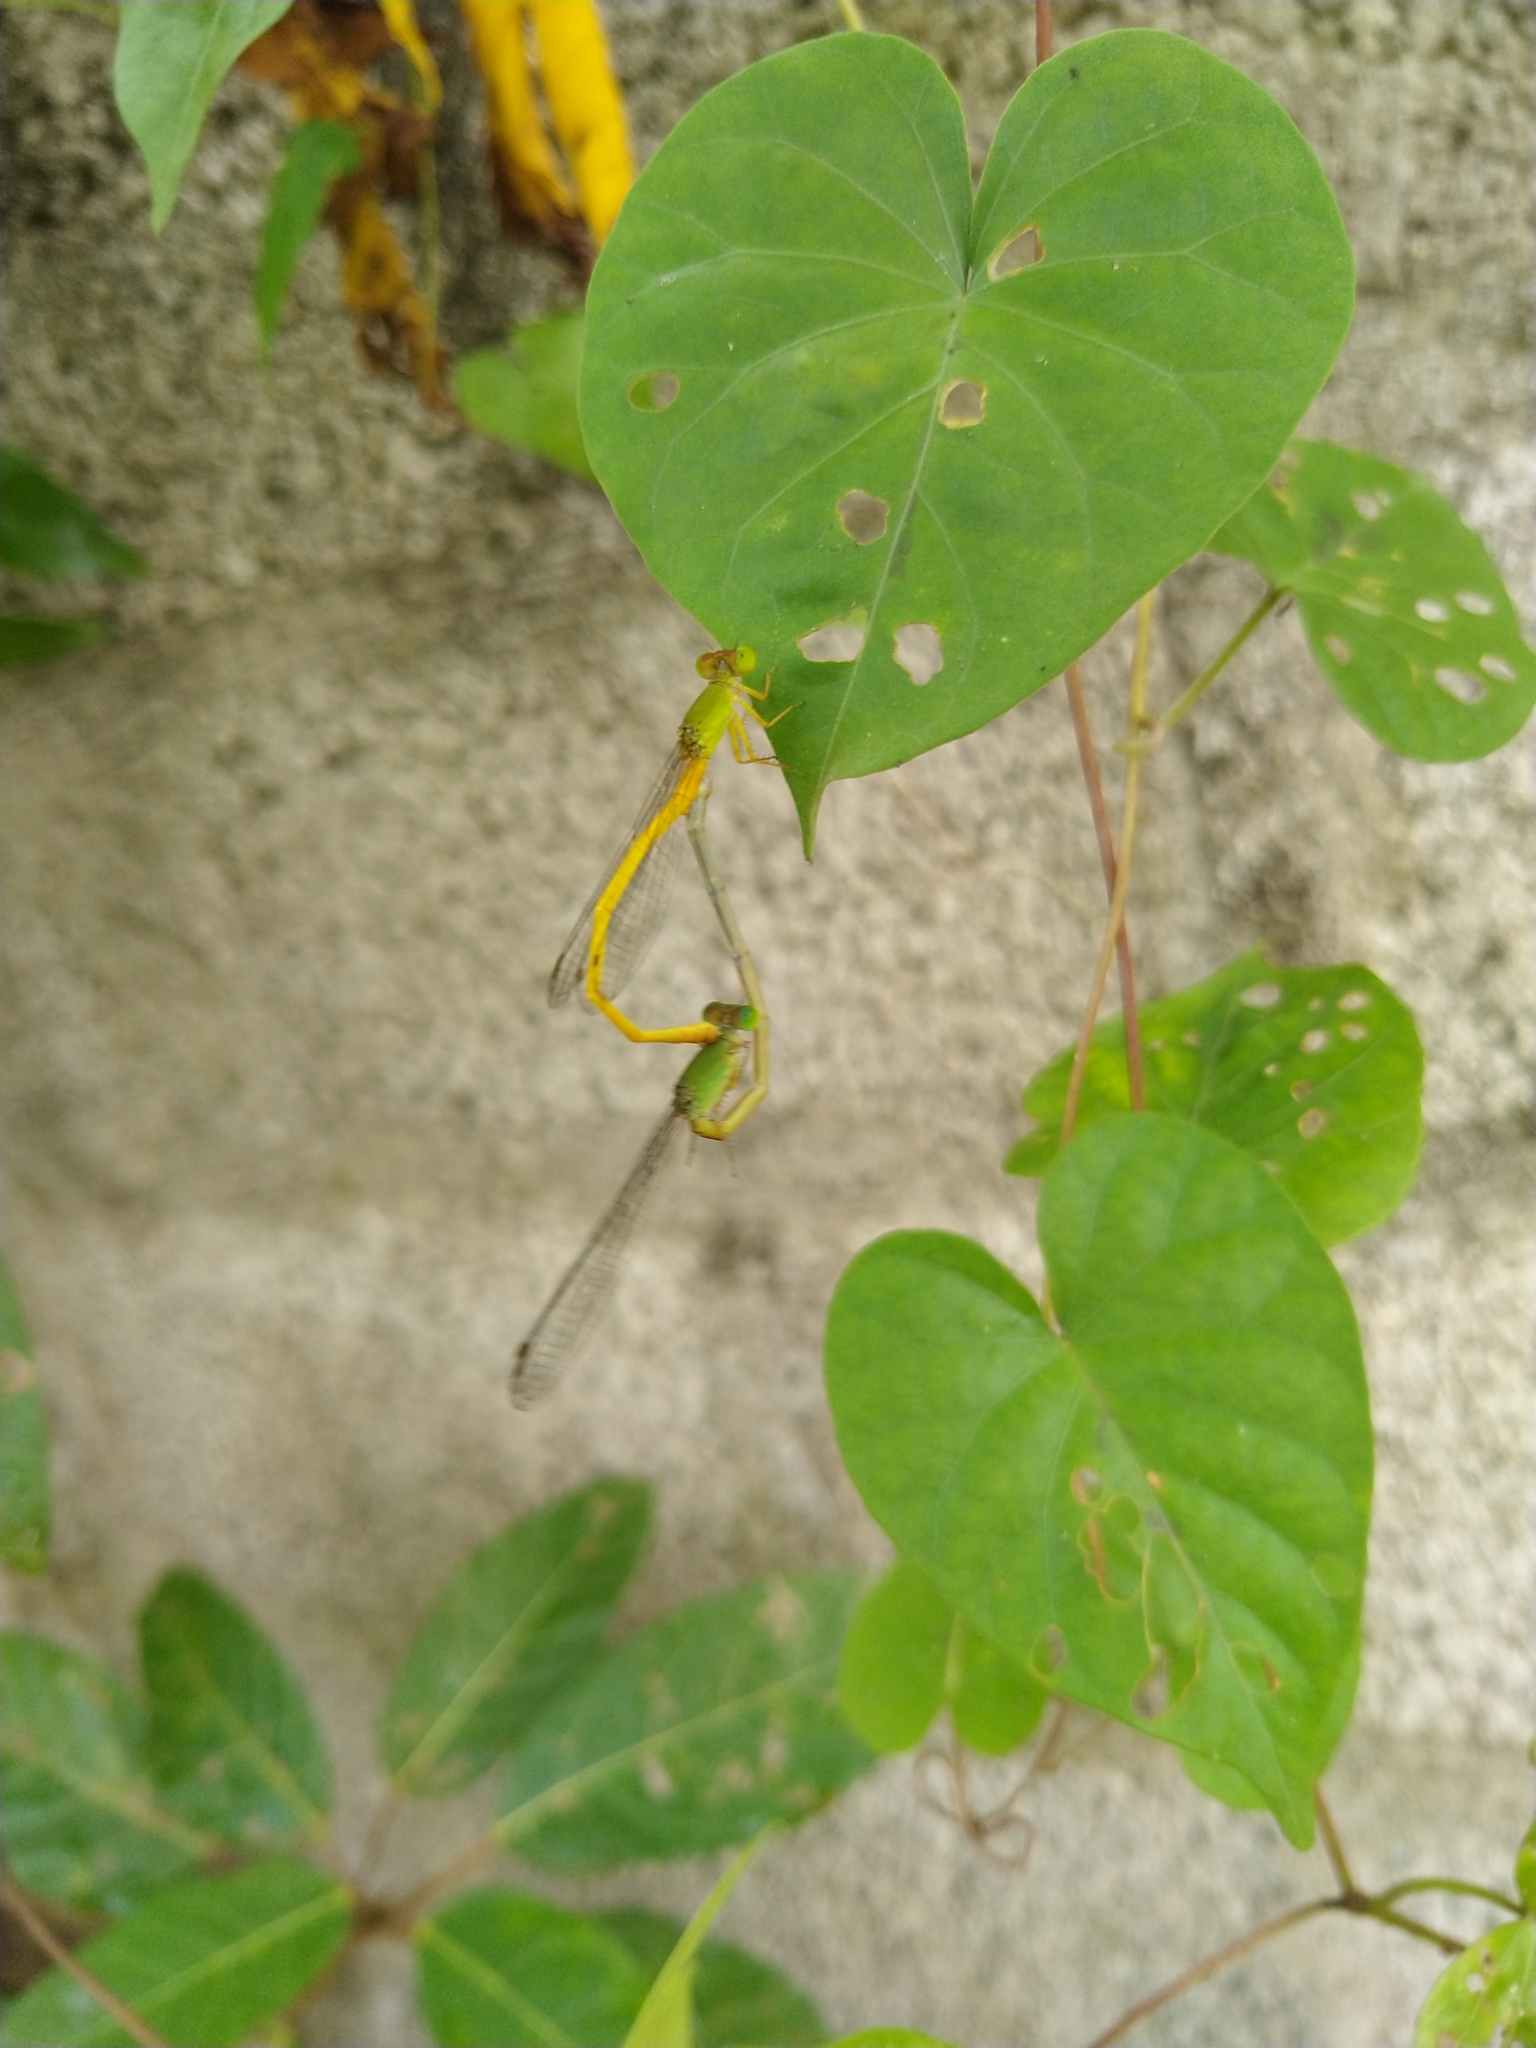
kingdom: Animalia
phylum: Arthropoda
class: Insecta
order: Odonata
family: Coenagrionidae
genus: Ceriagrion
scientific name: Ceriagrion coromandelianum
